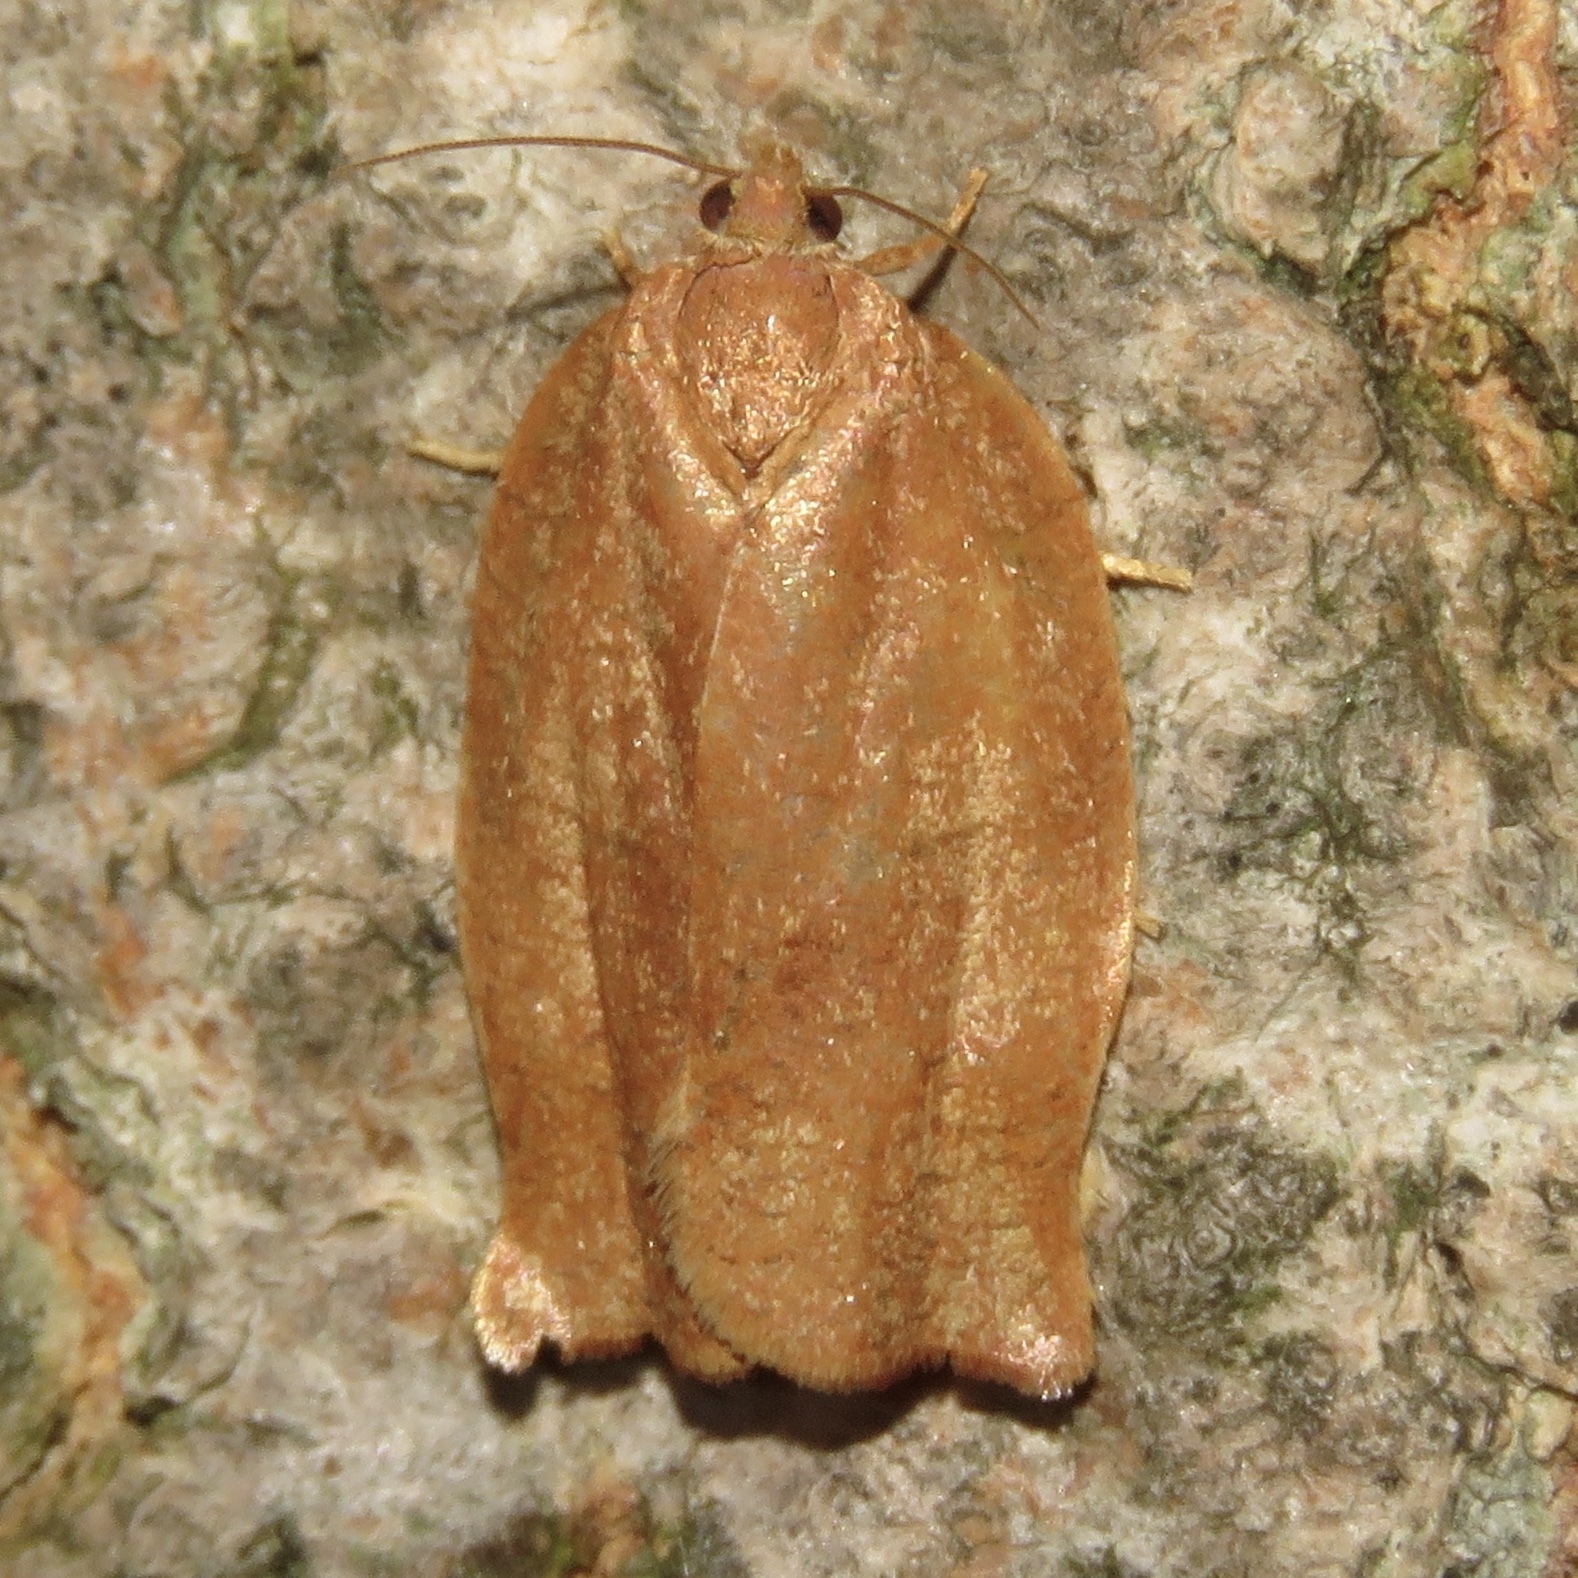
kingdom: Animalia
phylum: Arthropoda
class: Insecta
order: Lepidoptera
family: Tortricidae
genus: Choristoneura
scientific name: Choristoneura rosaceana
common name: Oblique-banded leafroller moth
